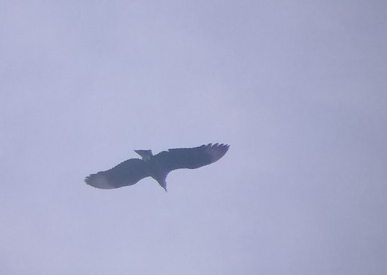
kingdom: Animalia
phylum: Chordata
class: Aves
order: Accipitriformes
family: Cathartidae
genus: Coragyps
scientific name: Coragyps atratus
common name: Black vulture
